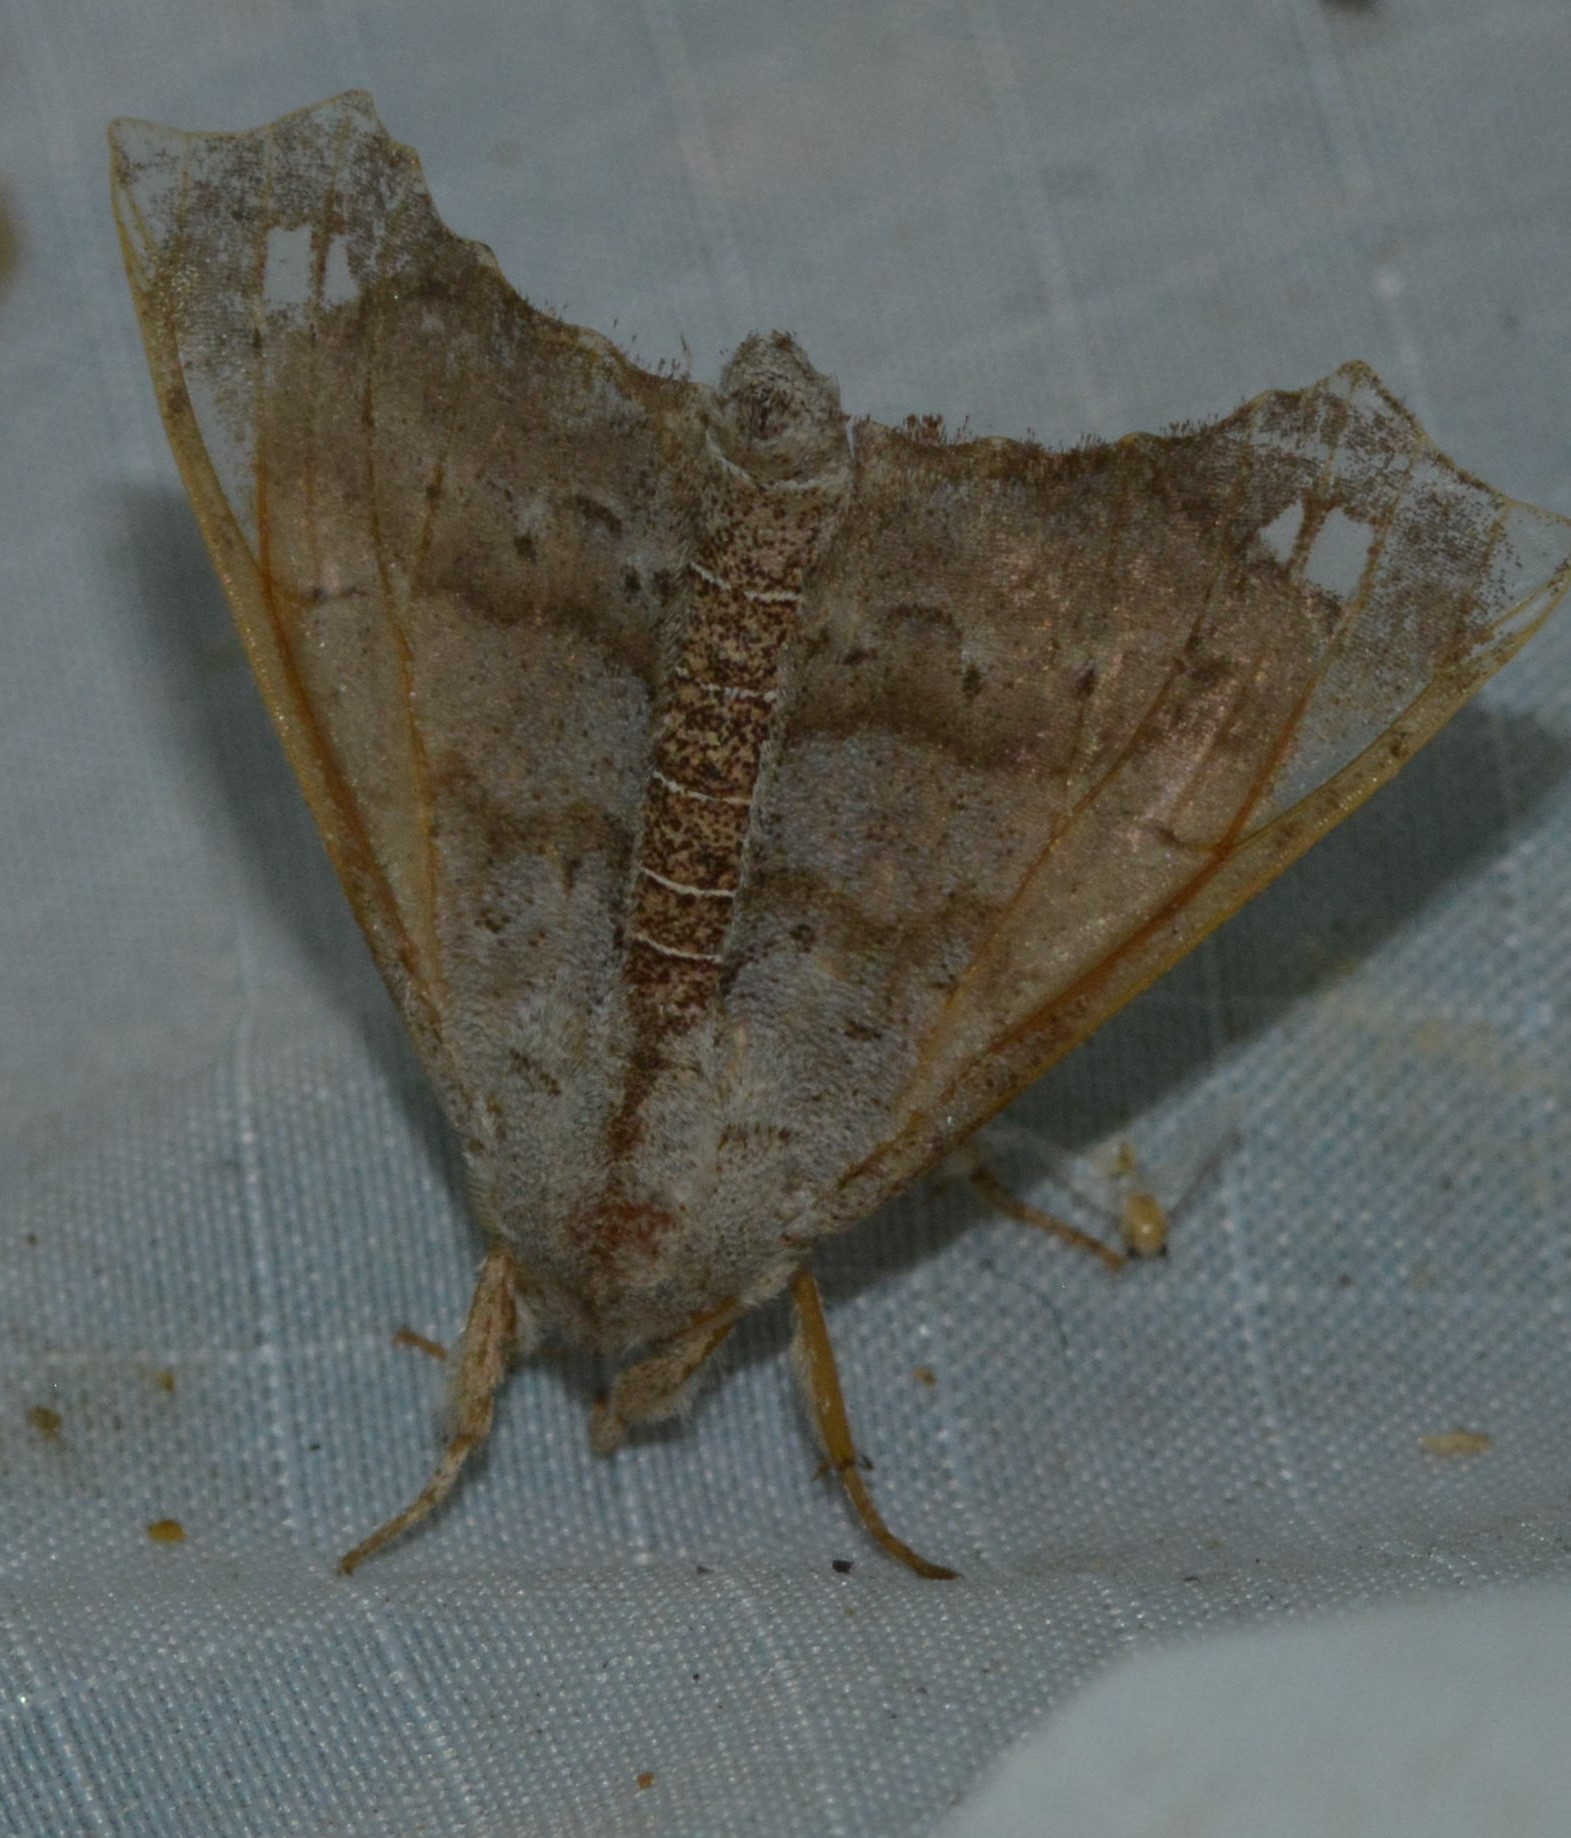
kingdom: Animalia
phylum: Arthropoda
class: Insecta
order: Lepidoptera
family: Apatelodidae
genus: Olceclostera
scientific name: Olceclostera angelica
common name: Angel moth
